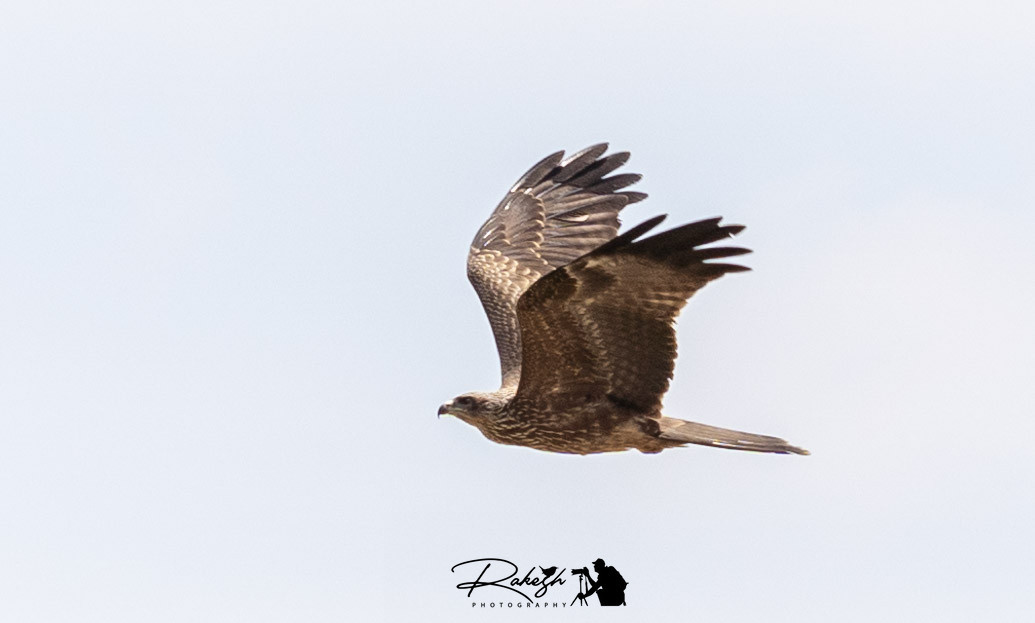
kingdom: Animalia
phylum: Chordata
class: Aves
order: Accipitriformes
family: Accipitridae
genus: Milvus
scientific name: Milvus migrans
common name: Black kite
